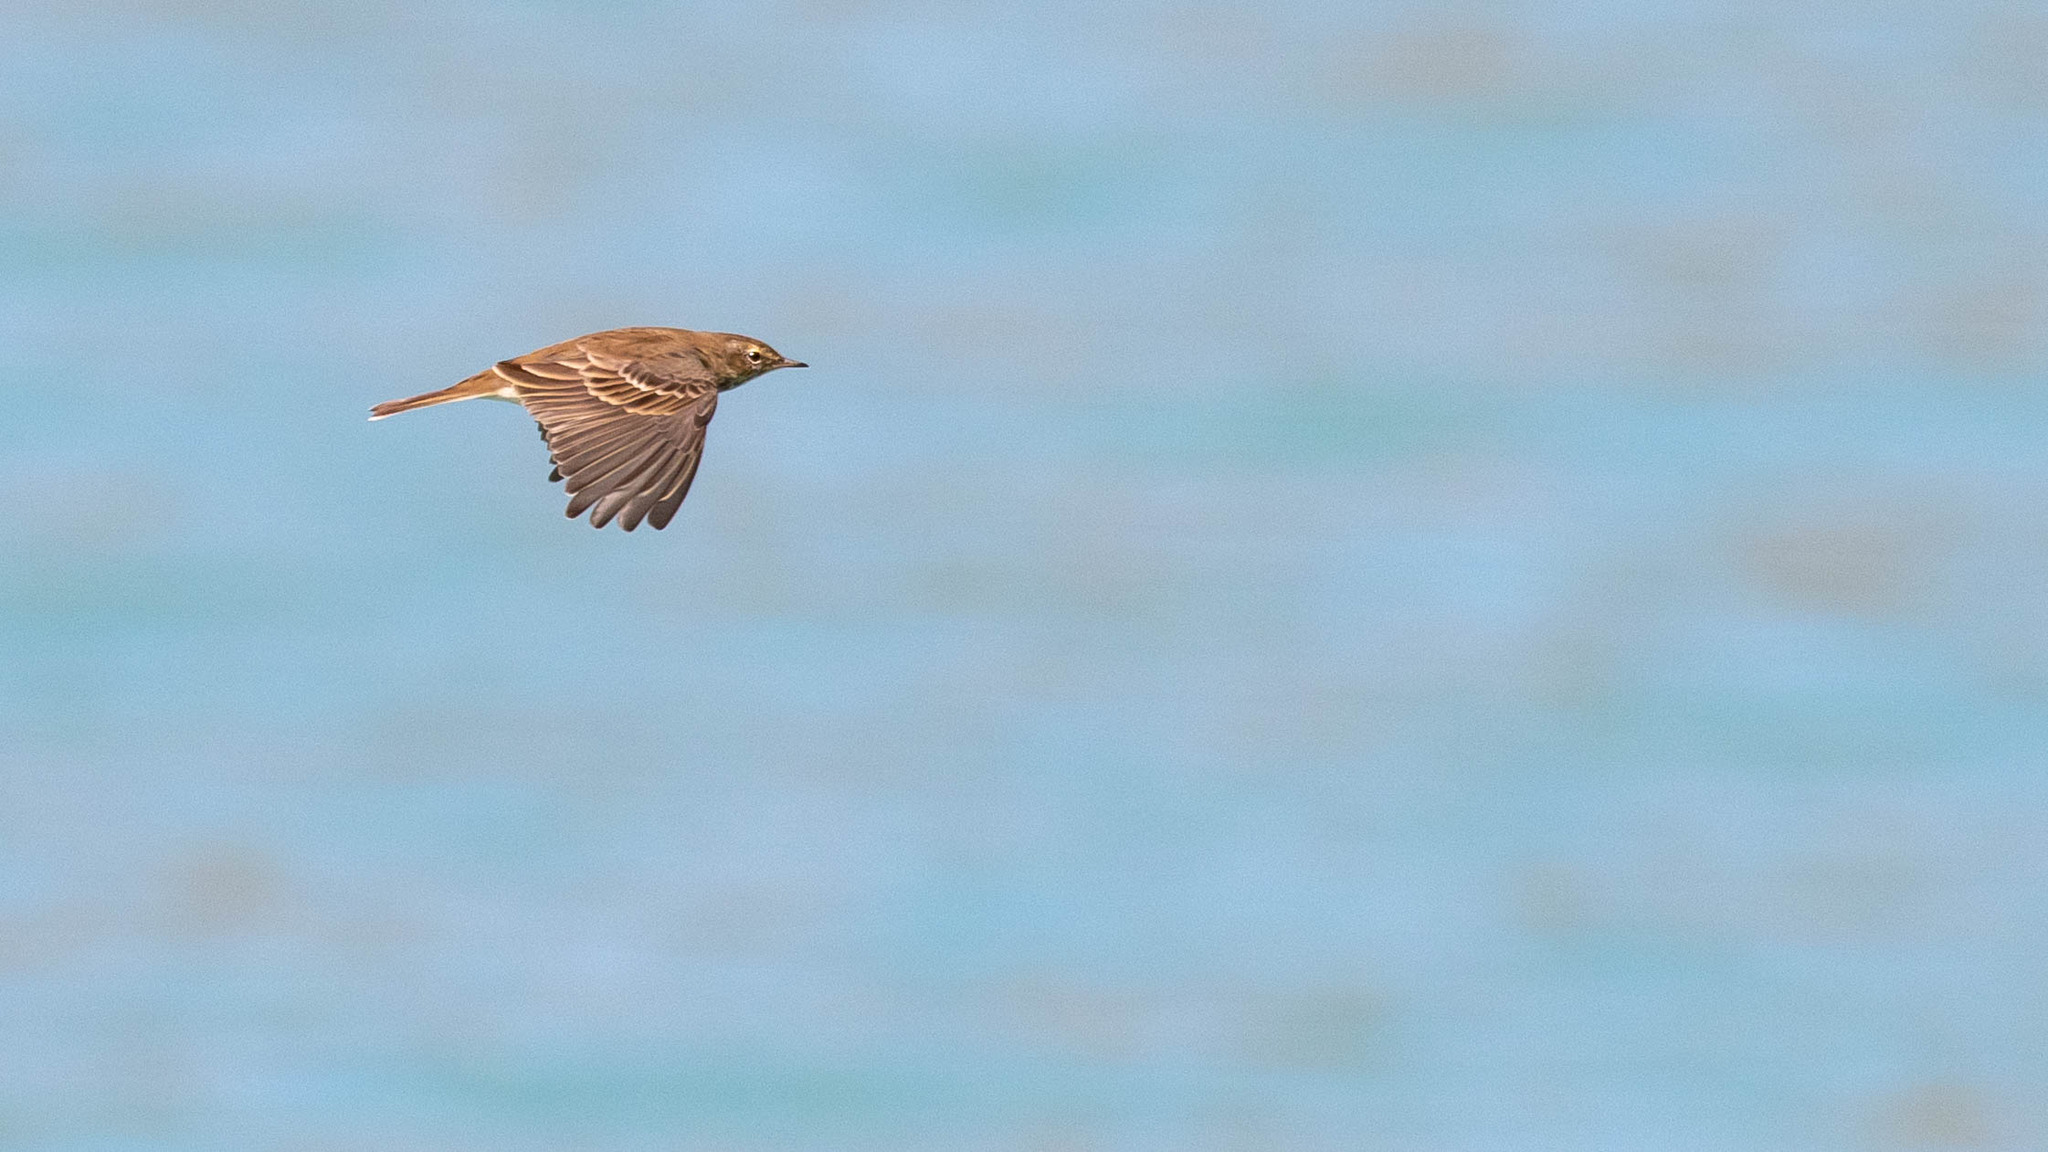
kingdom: Animalia
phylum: Chordata
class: Aves
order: Passeriformes
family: Motacillidae
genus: Anthus
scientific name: Anthus spinoletta
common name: Water pipit
